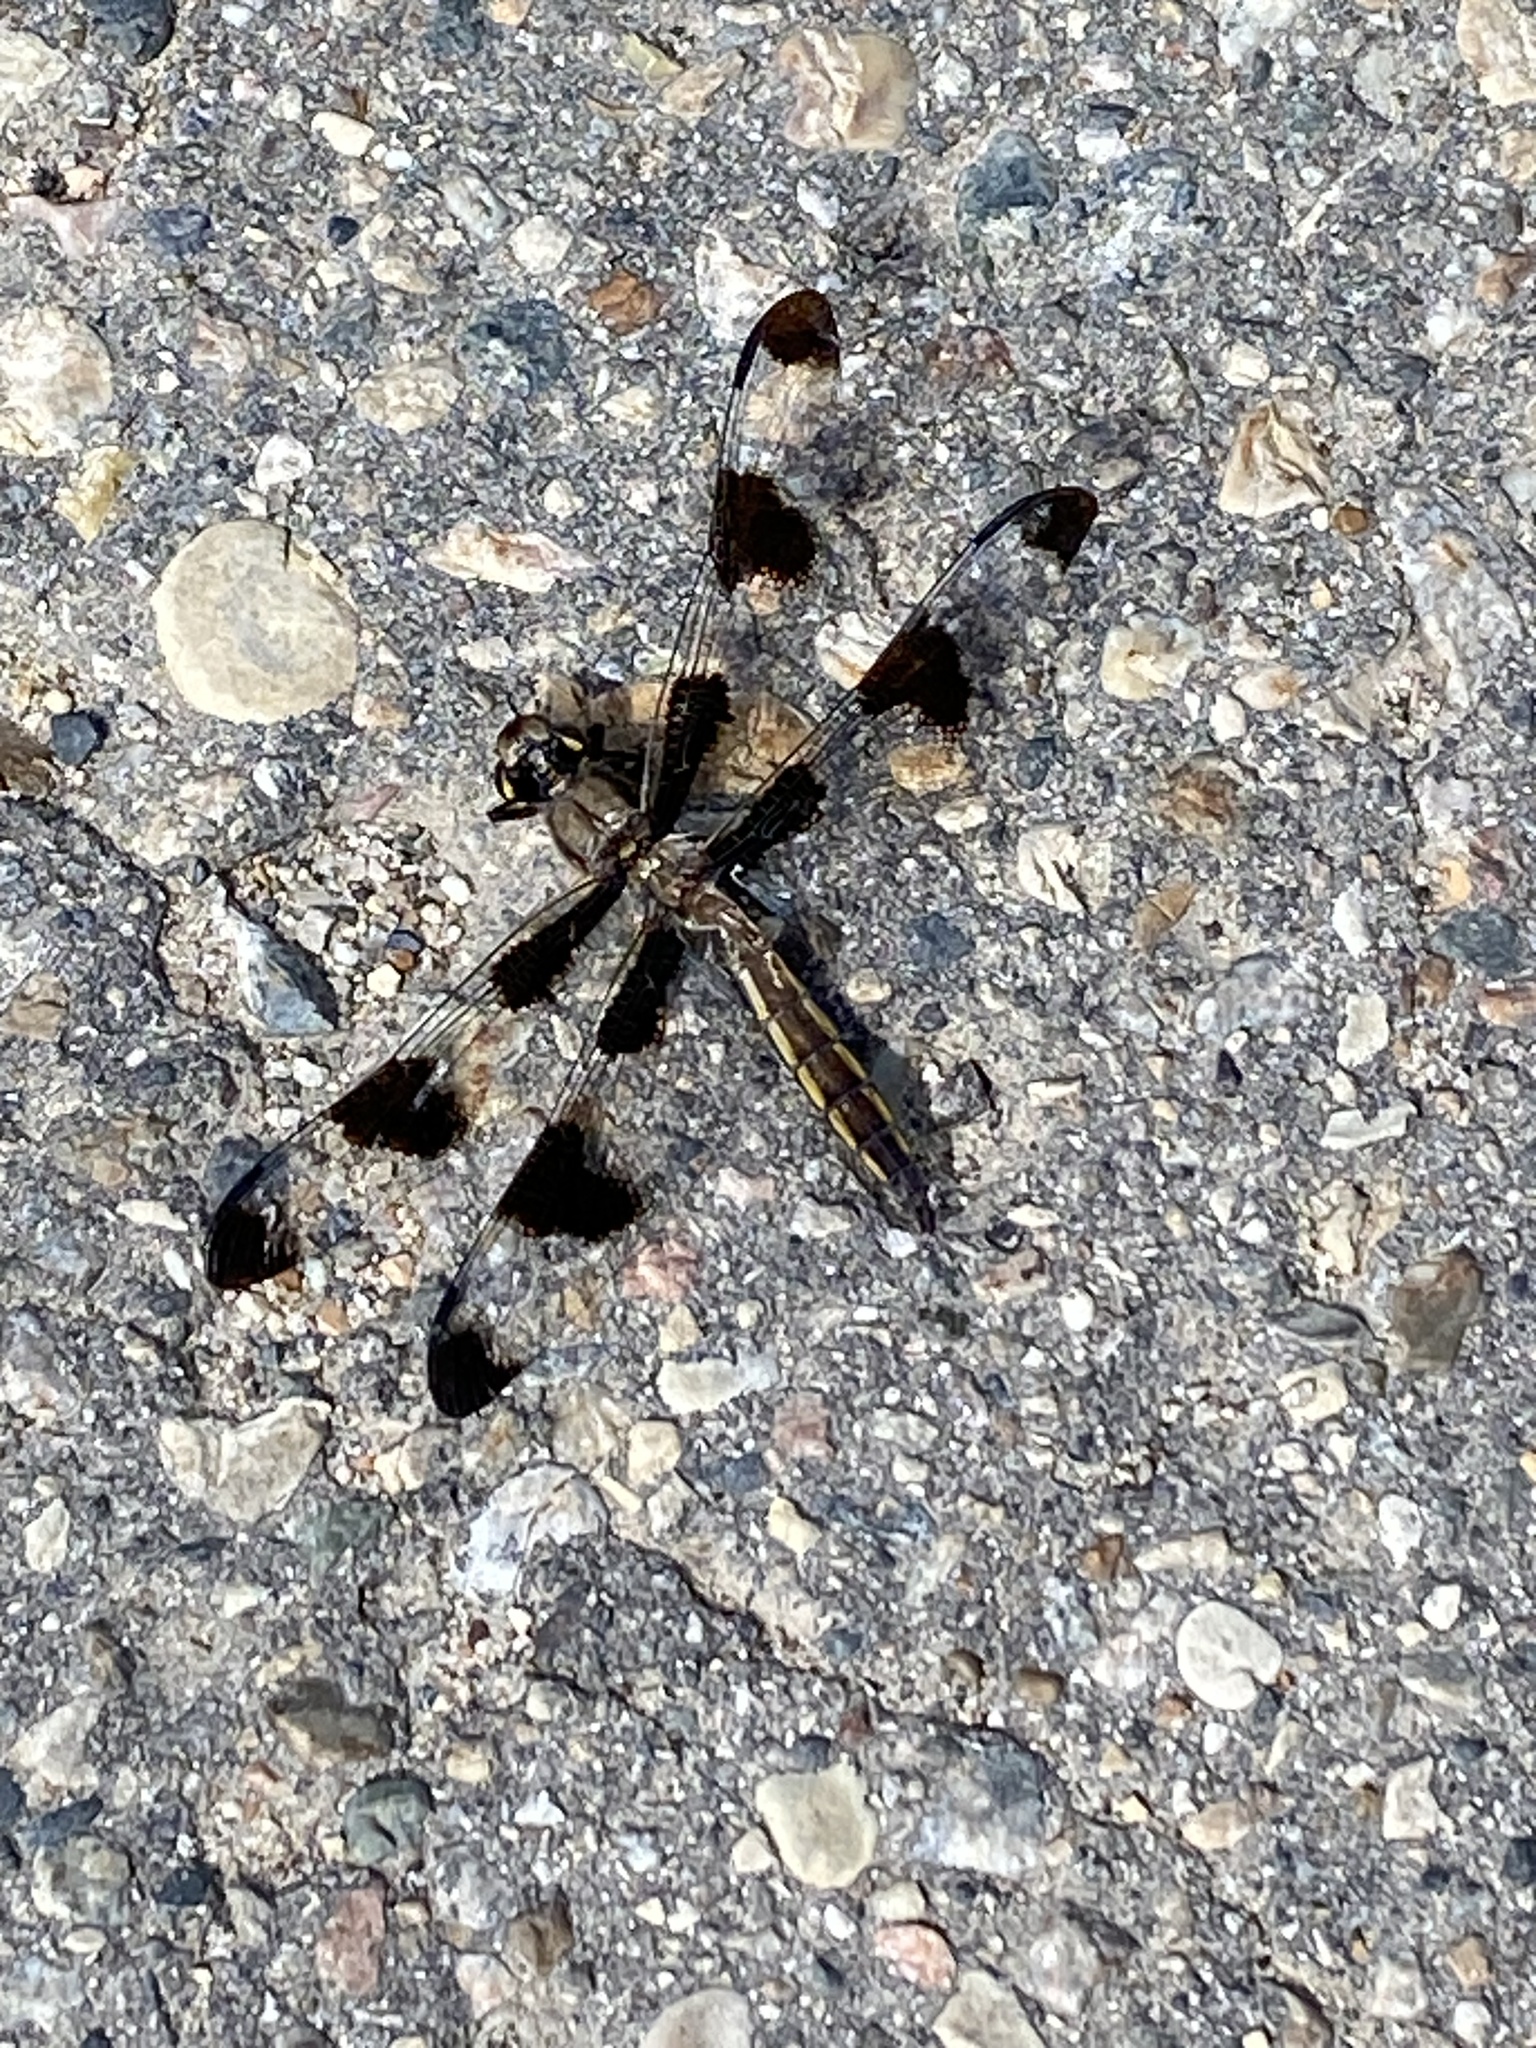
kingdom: Animalia
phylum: Arthropoda
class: Insecta
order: Odonata
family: Libellulidae
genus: Libellula
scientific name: Libellula pulchella
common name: Twelve-spotted skimmer
